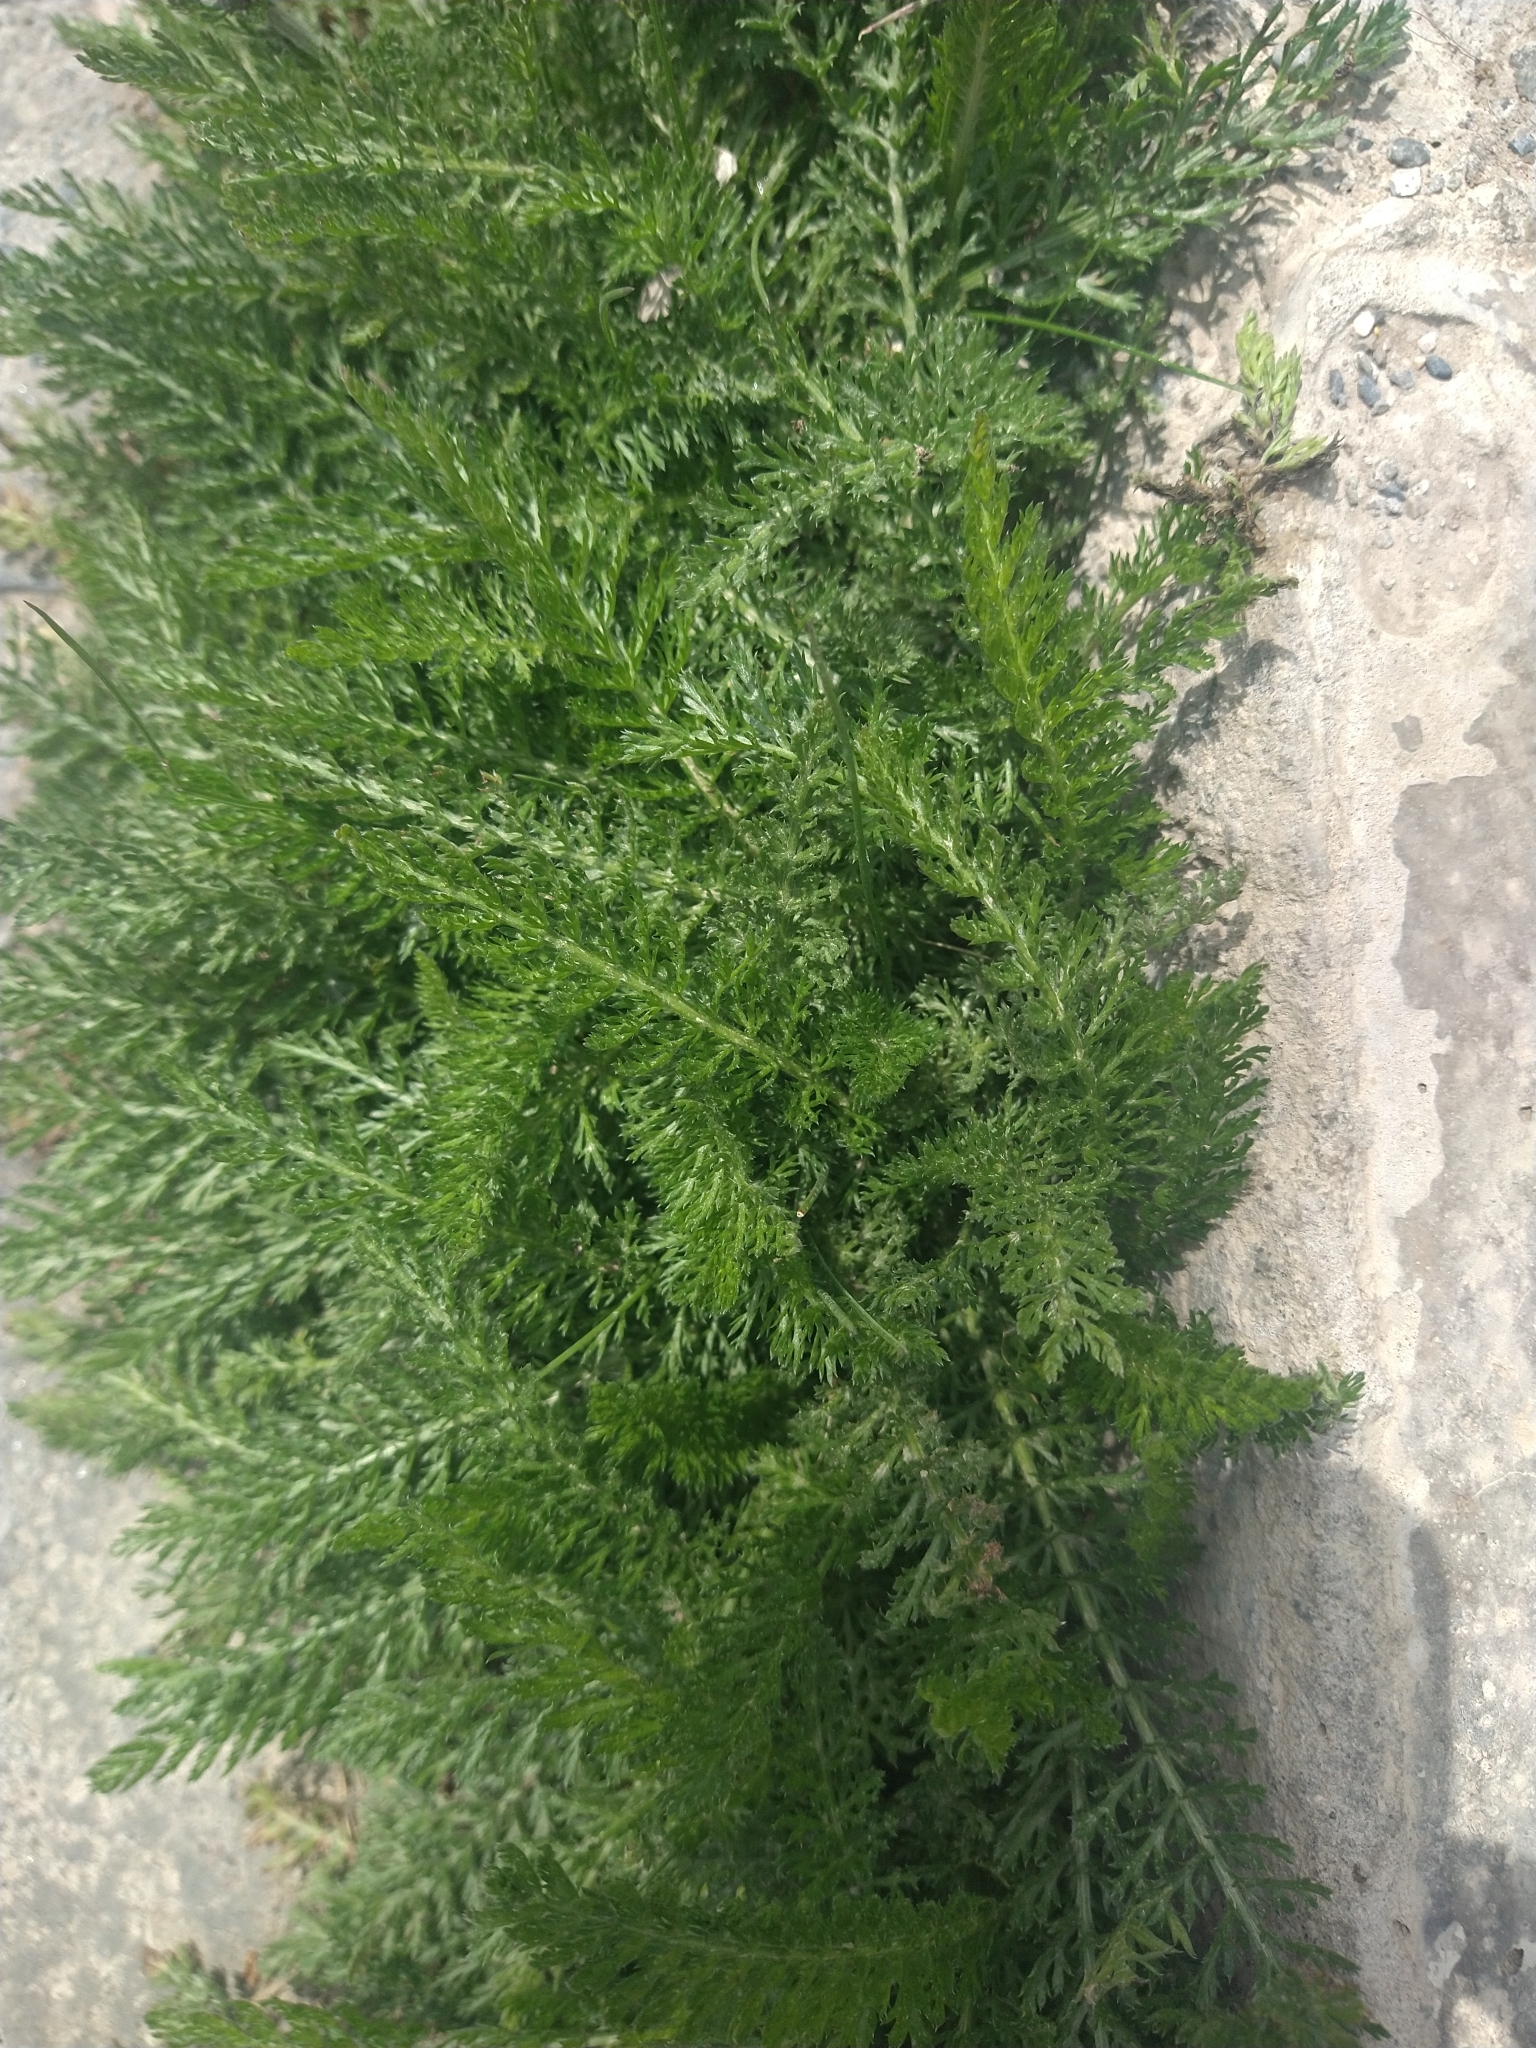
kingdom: Plantae
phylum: Tracheophyta
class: Magnoliopsida
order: Asterales
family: Asteraceae
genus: Achillea
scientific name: Achillea millefolium
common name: Yarrow
